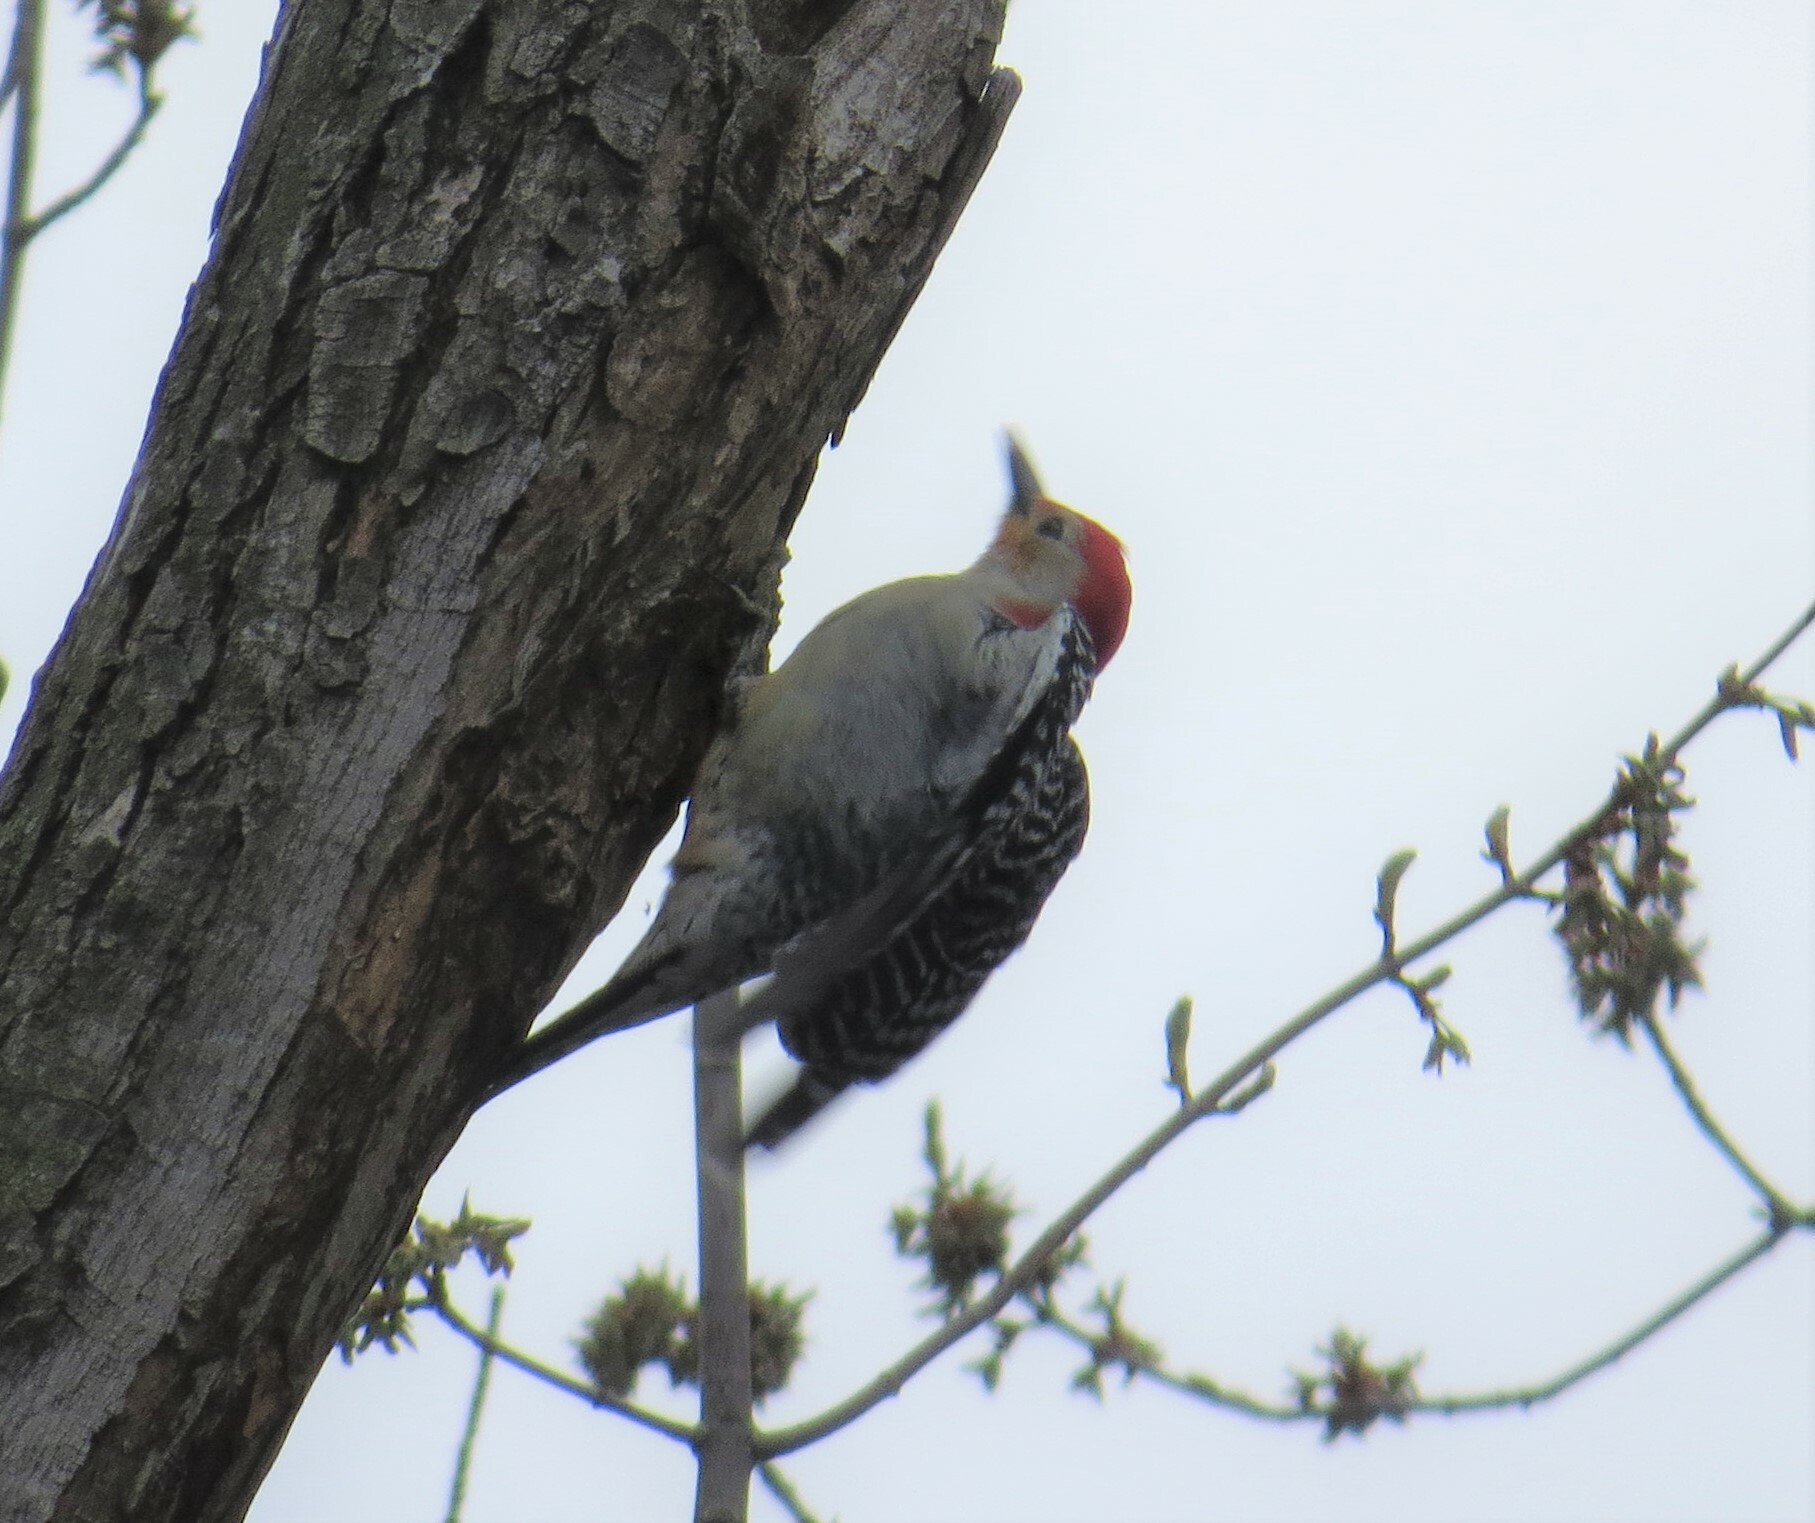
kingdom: Animalia
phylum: Chordata
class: Aves
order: Piciformes
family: Picidae
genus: Melanerpes
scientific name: Melanerpes carolinus
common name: Red-bellied woodpecker
